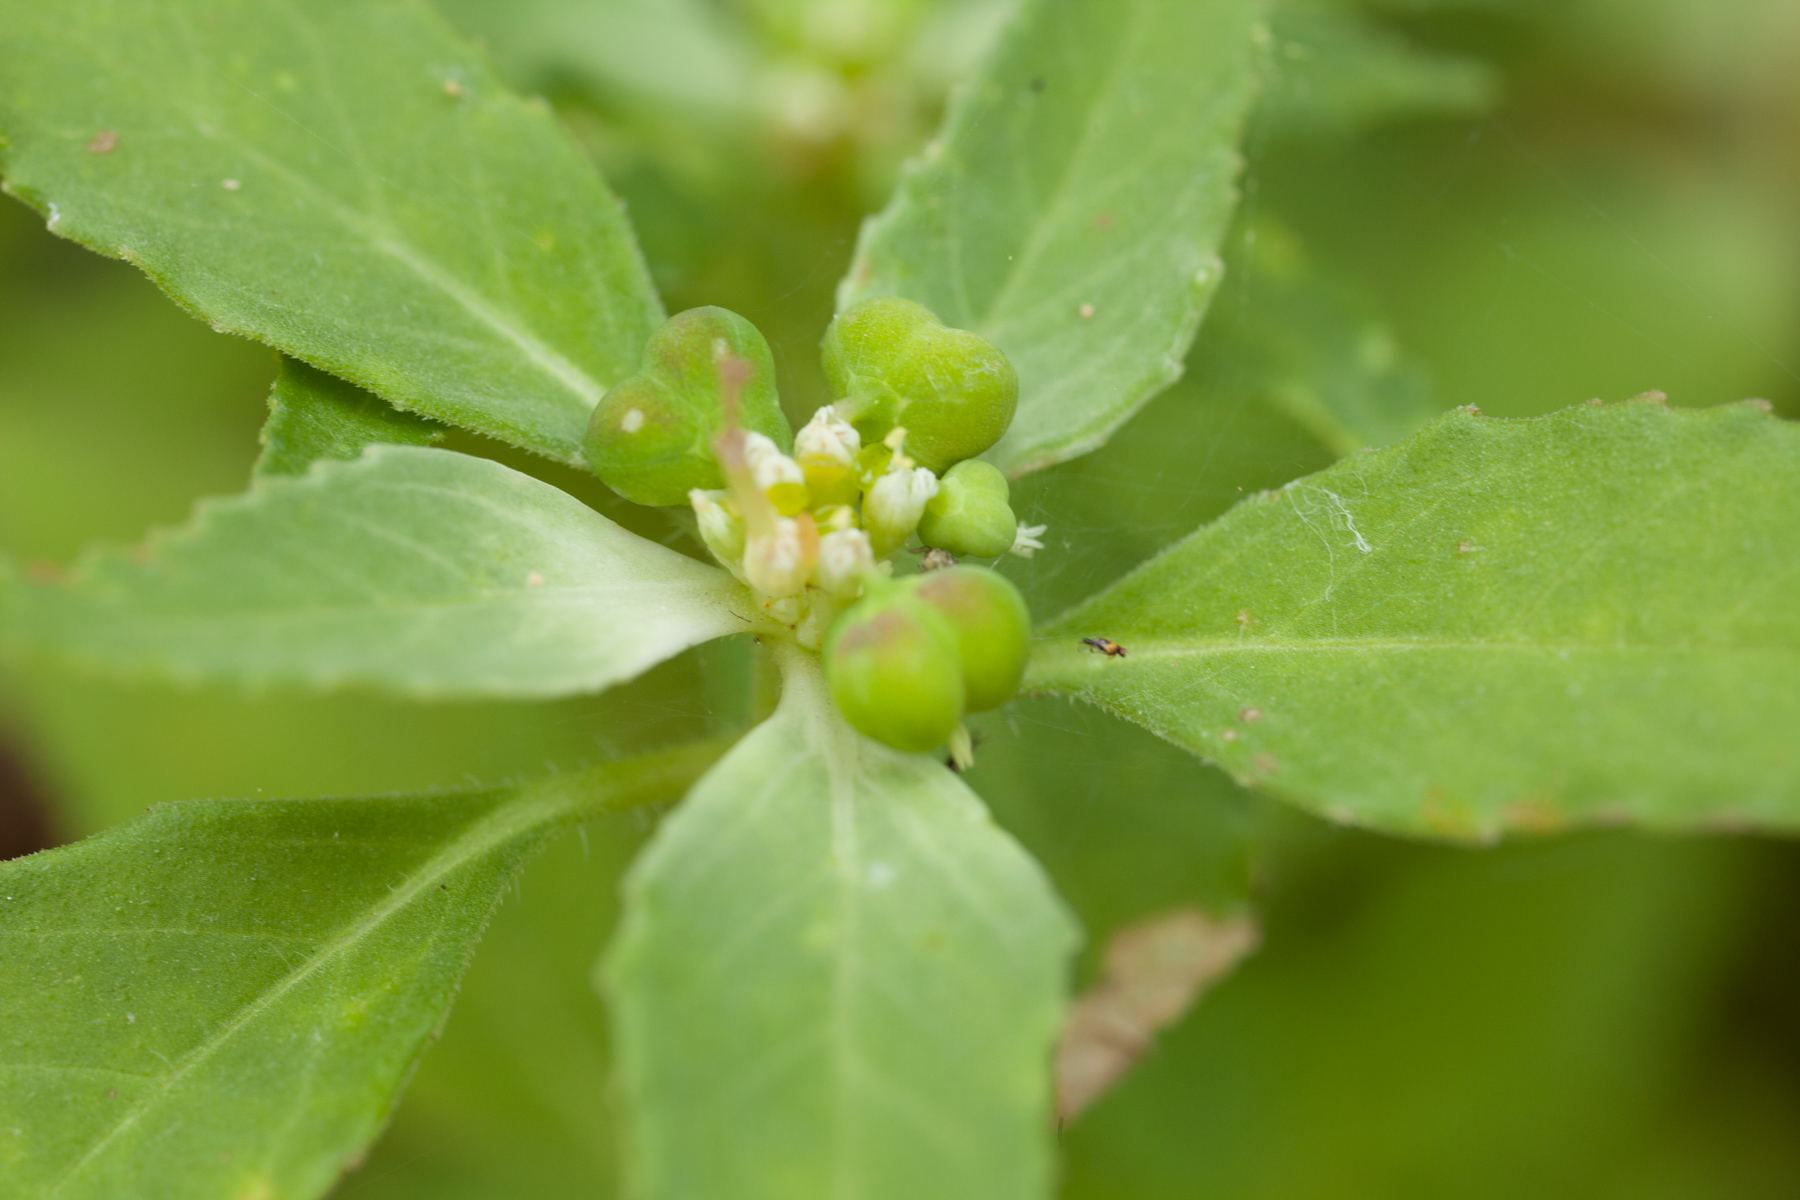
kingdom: Plantae
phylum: Tracheophyta
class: Magnoliopsida
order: Malpighiales
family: Euphorbiaceae
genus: Euphorbia
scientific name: Euphorbia dentata
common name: Dentate spurge
